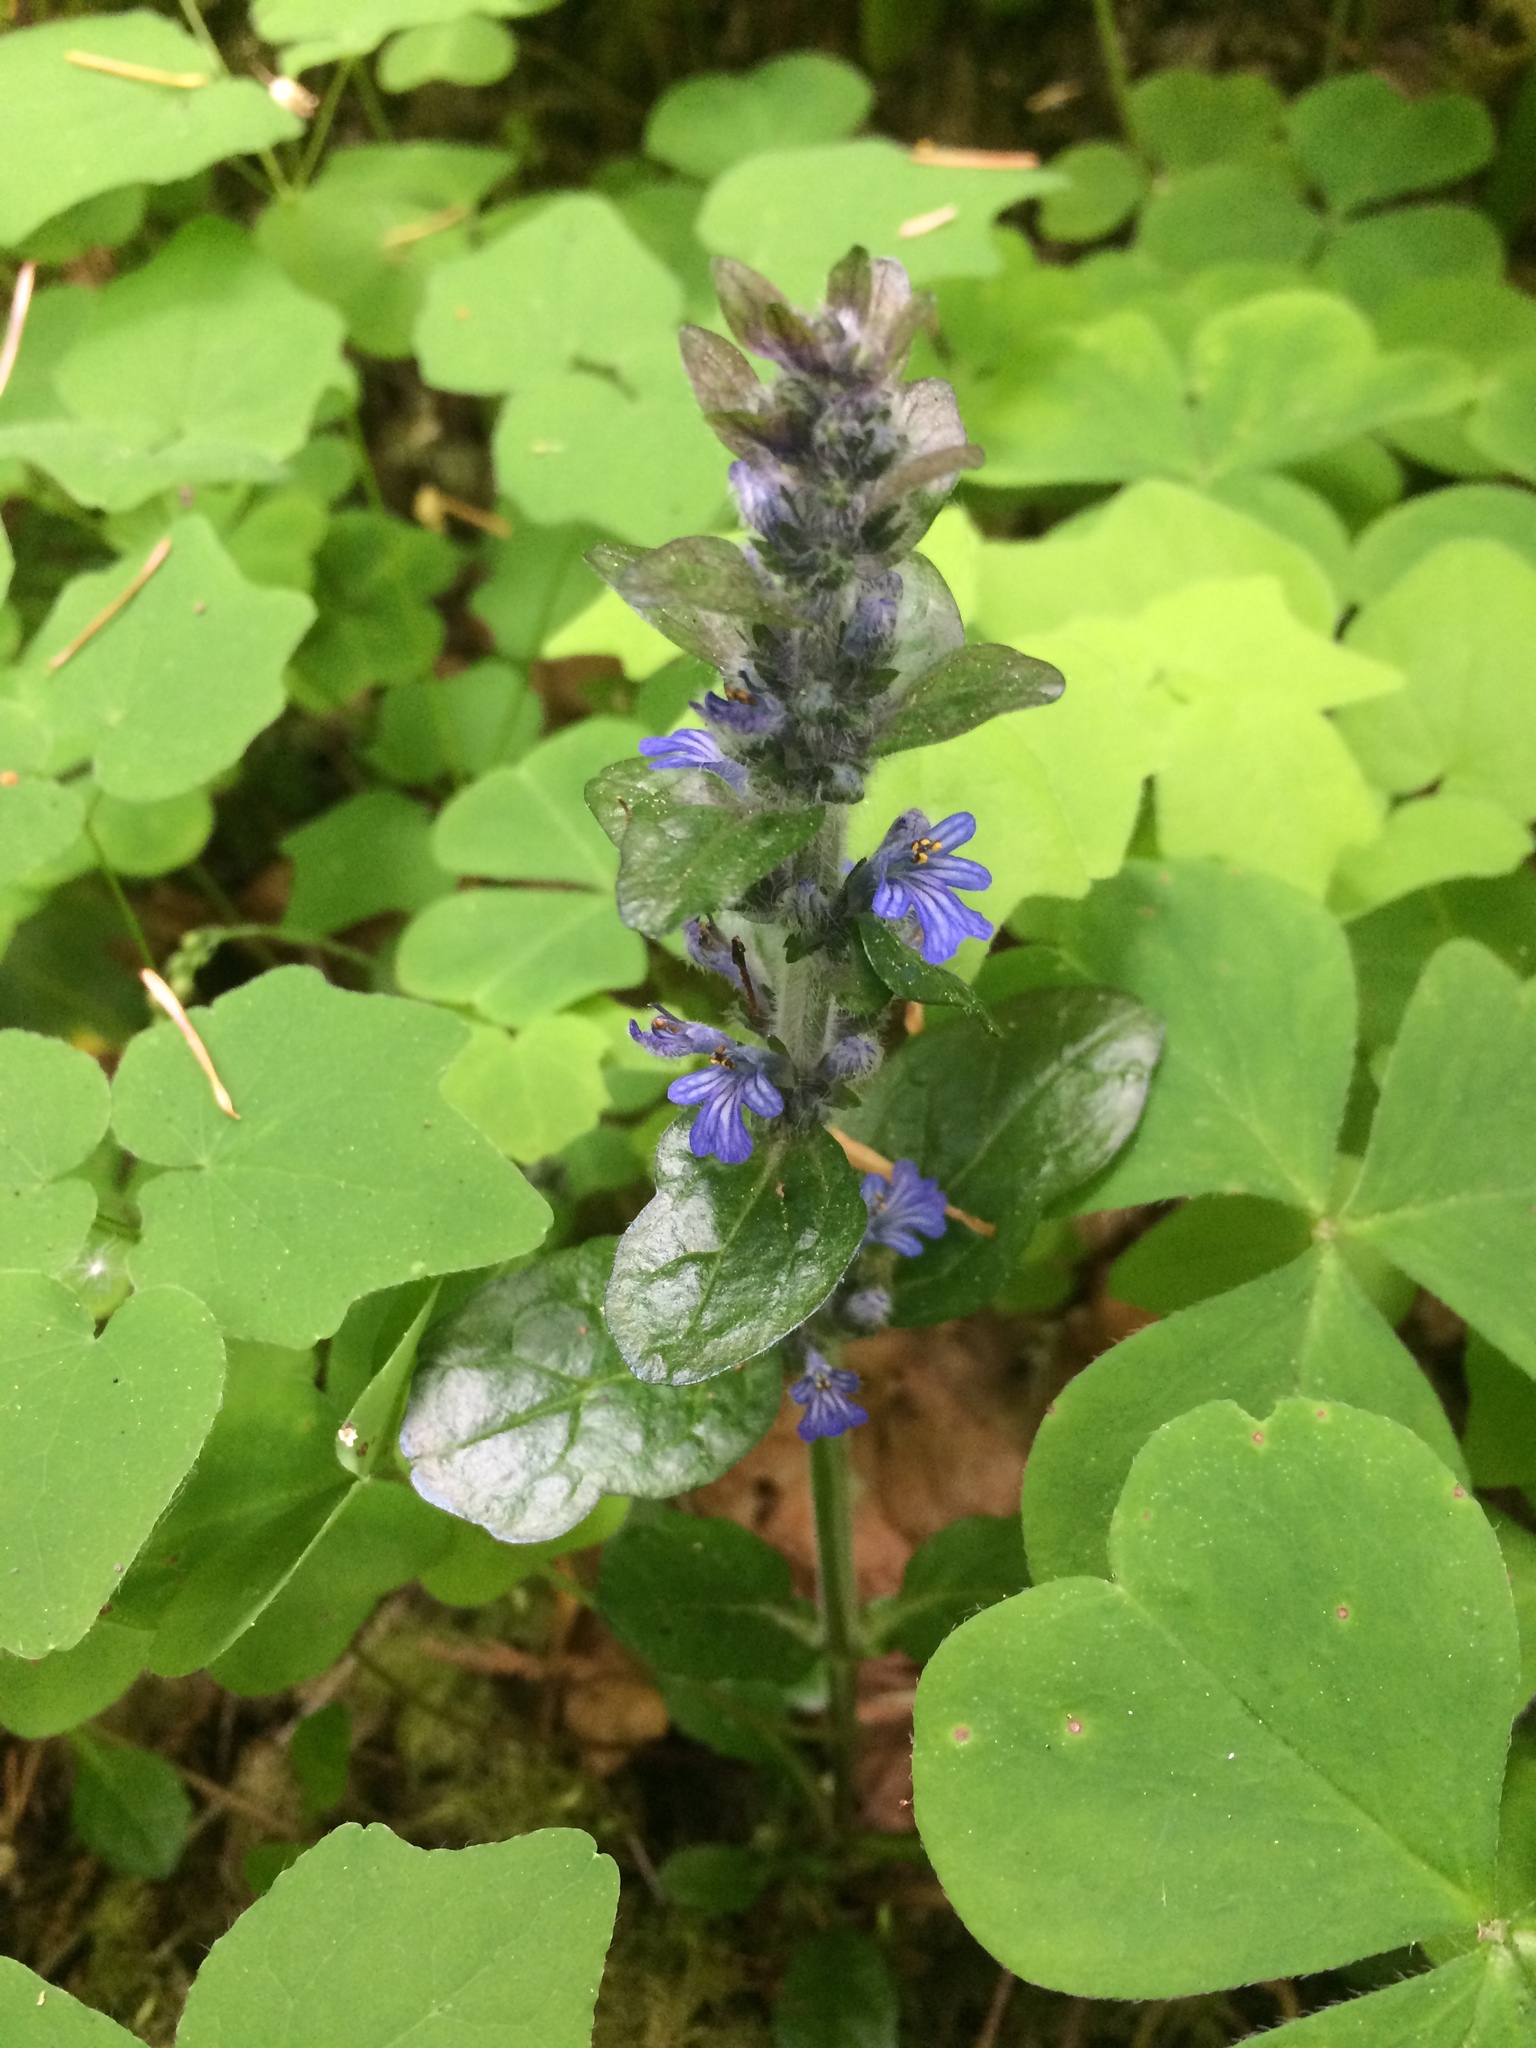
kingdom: Plantae
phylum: Tracheophyta
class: Magnoliopsida
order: Lamiales
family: Lamiaceae
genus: Ajuga
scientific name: Ajuga reptans
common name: Bugle
